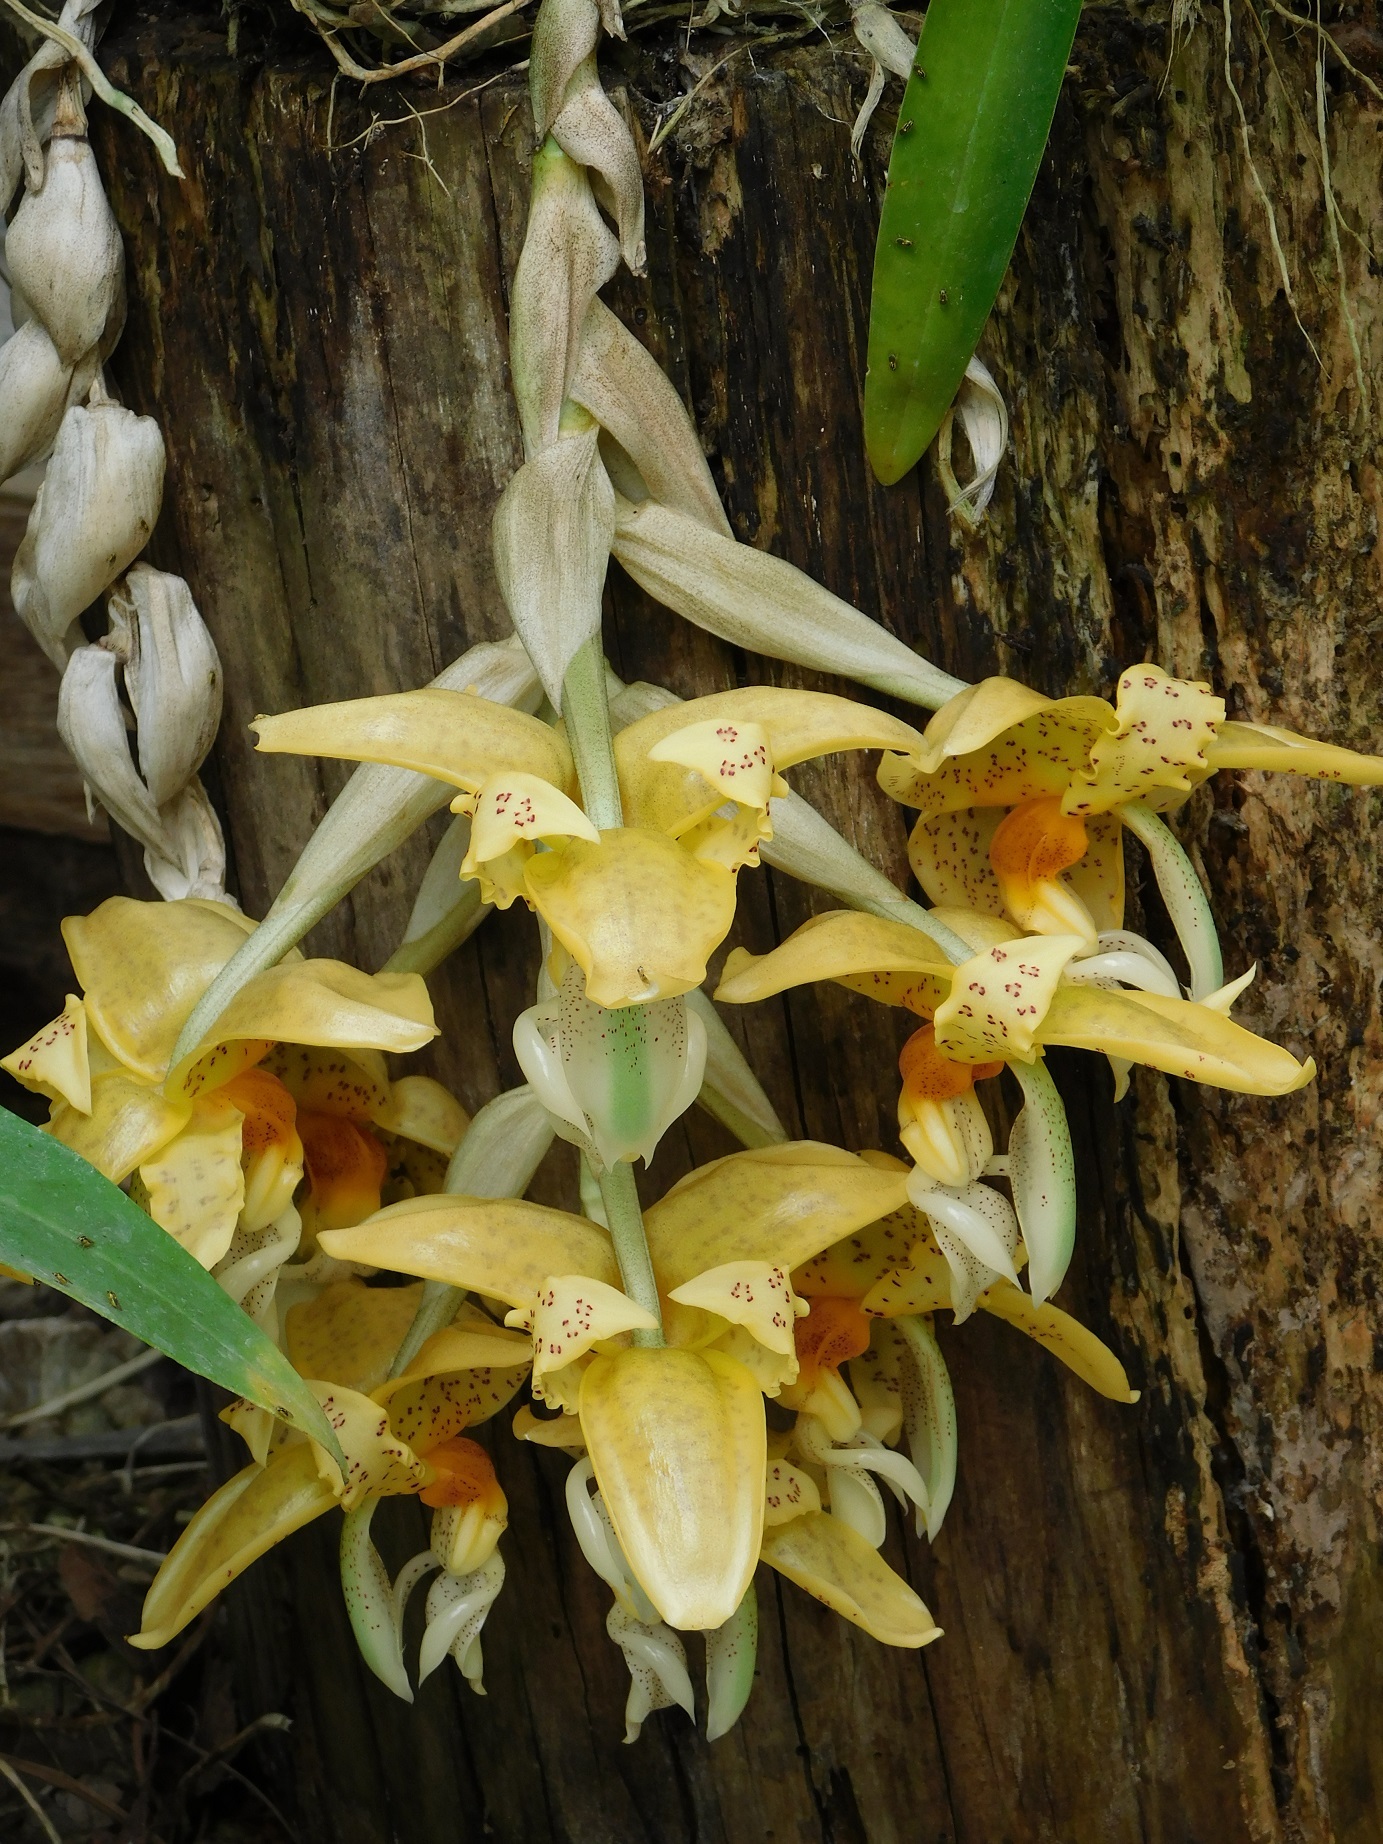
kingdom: Plantae
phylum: Tracheophyta
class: Liliopsida
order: Asparagales
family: Orchidaceae
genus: Stanhopea
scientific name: Stanhopea graveolens
